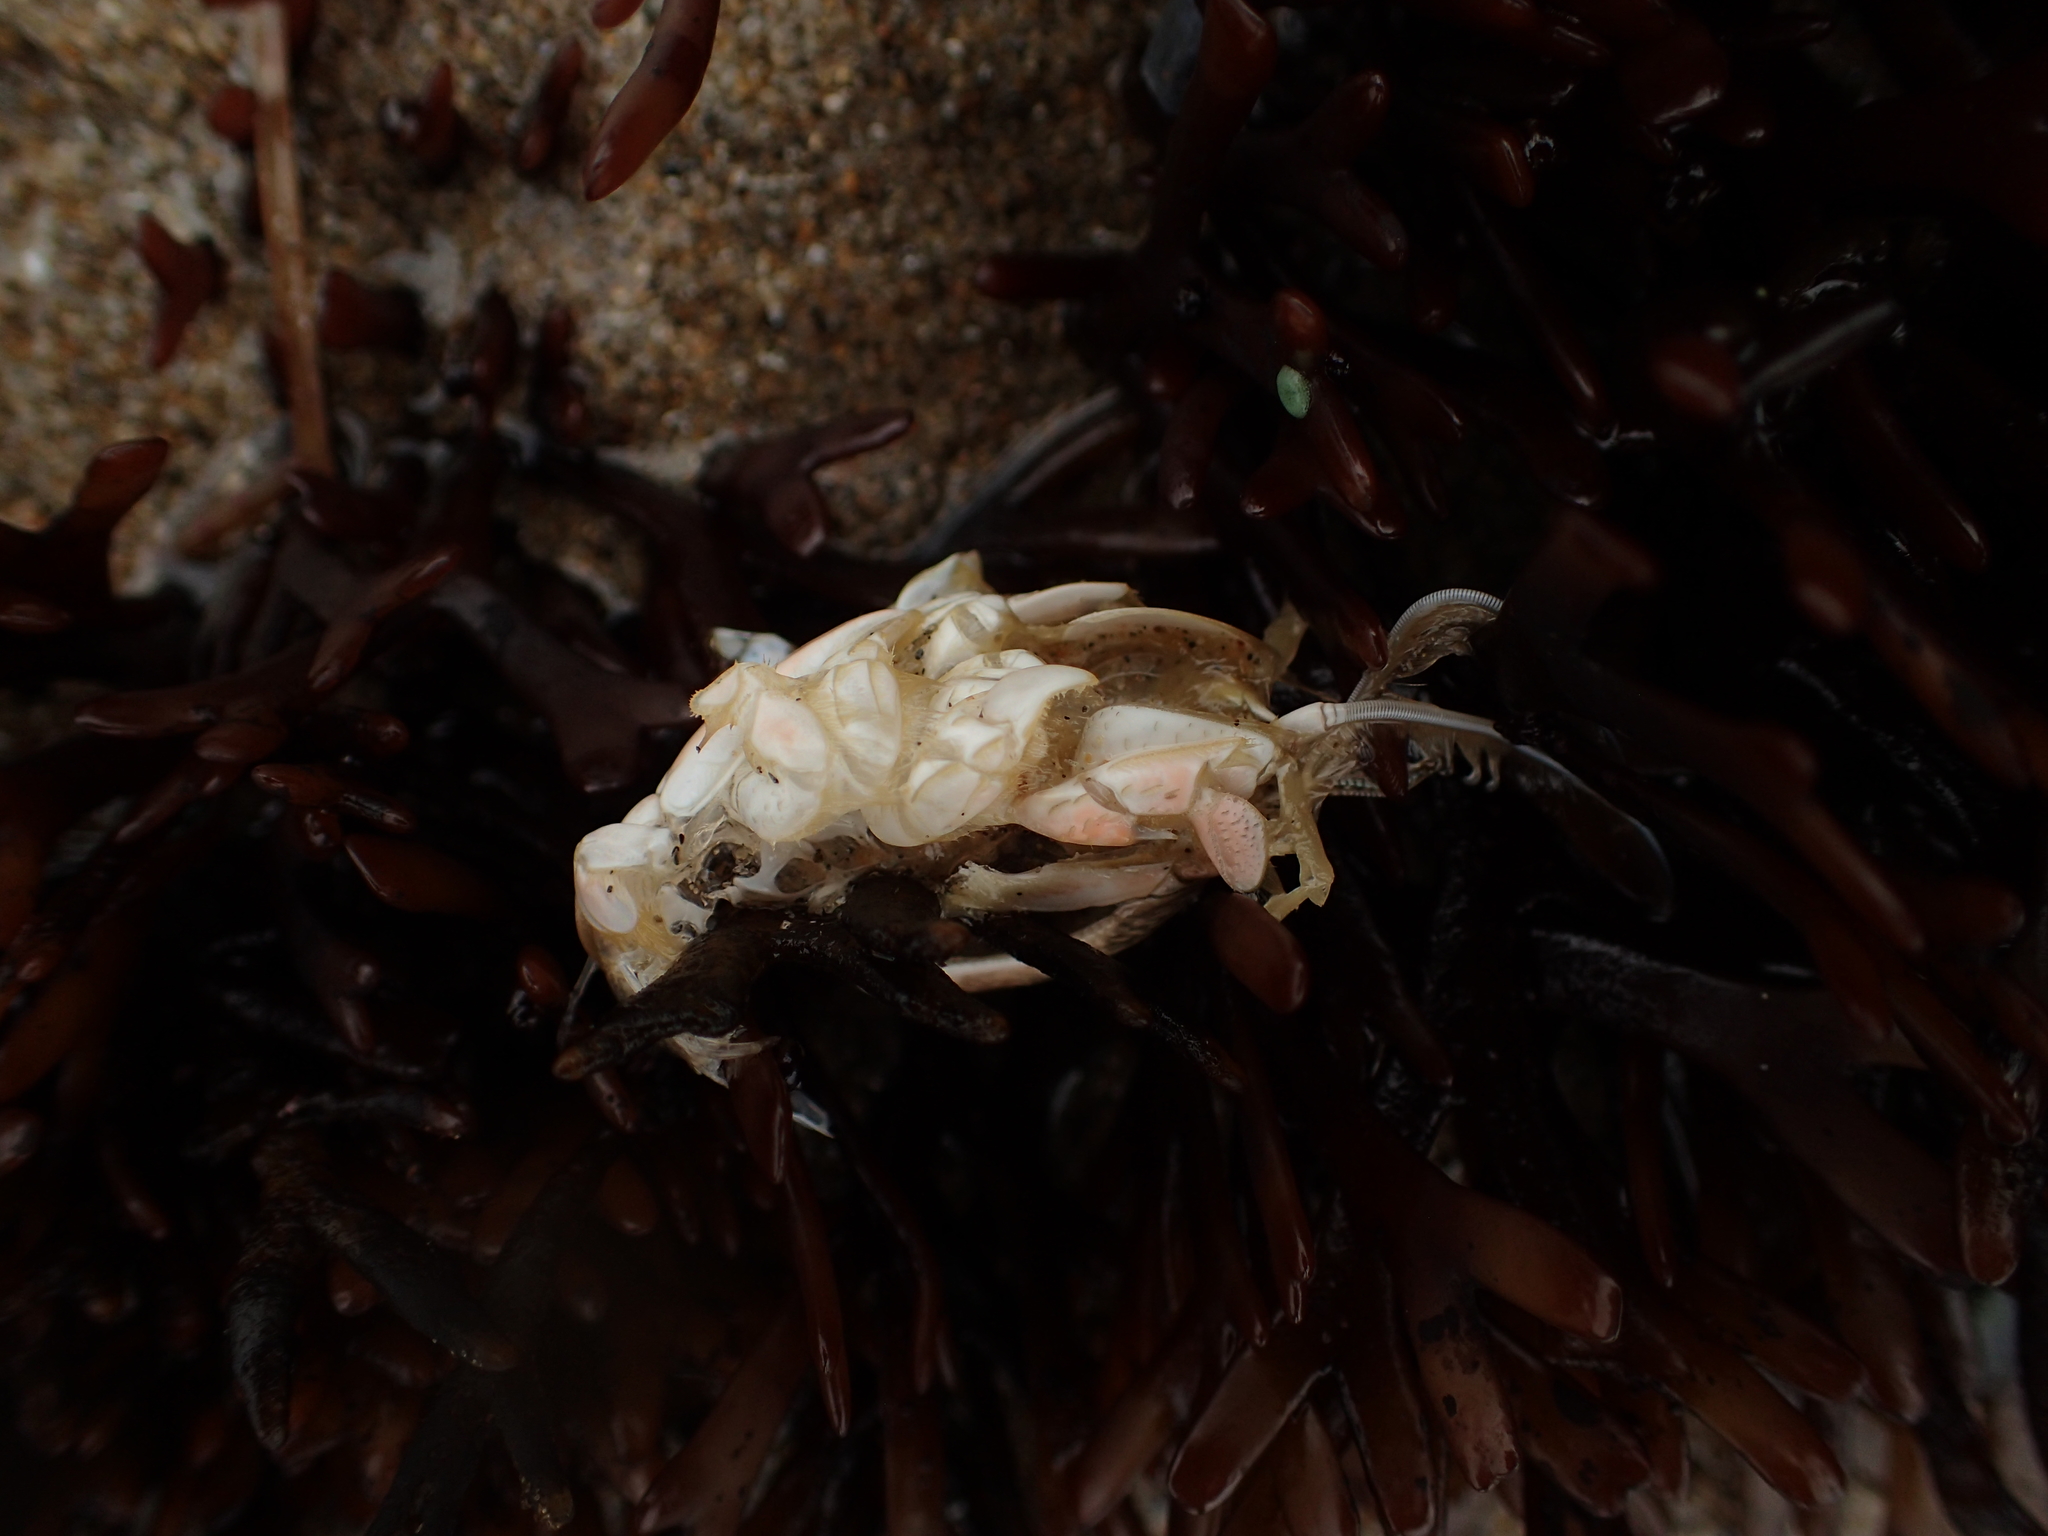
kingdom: Animalia
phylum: Arthropoda
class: Malacostraca
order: Decapoda
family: Hippidae
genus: Emerita
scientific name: Emerita analoga
